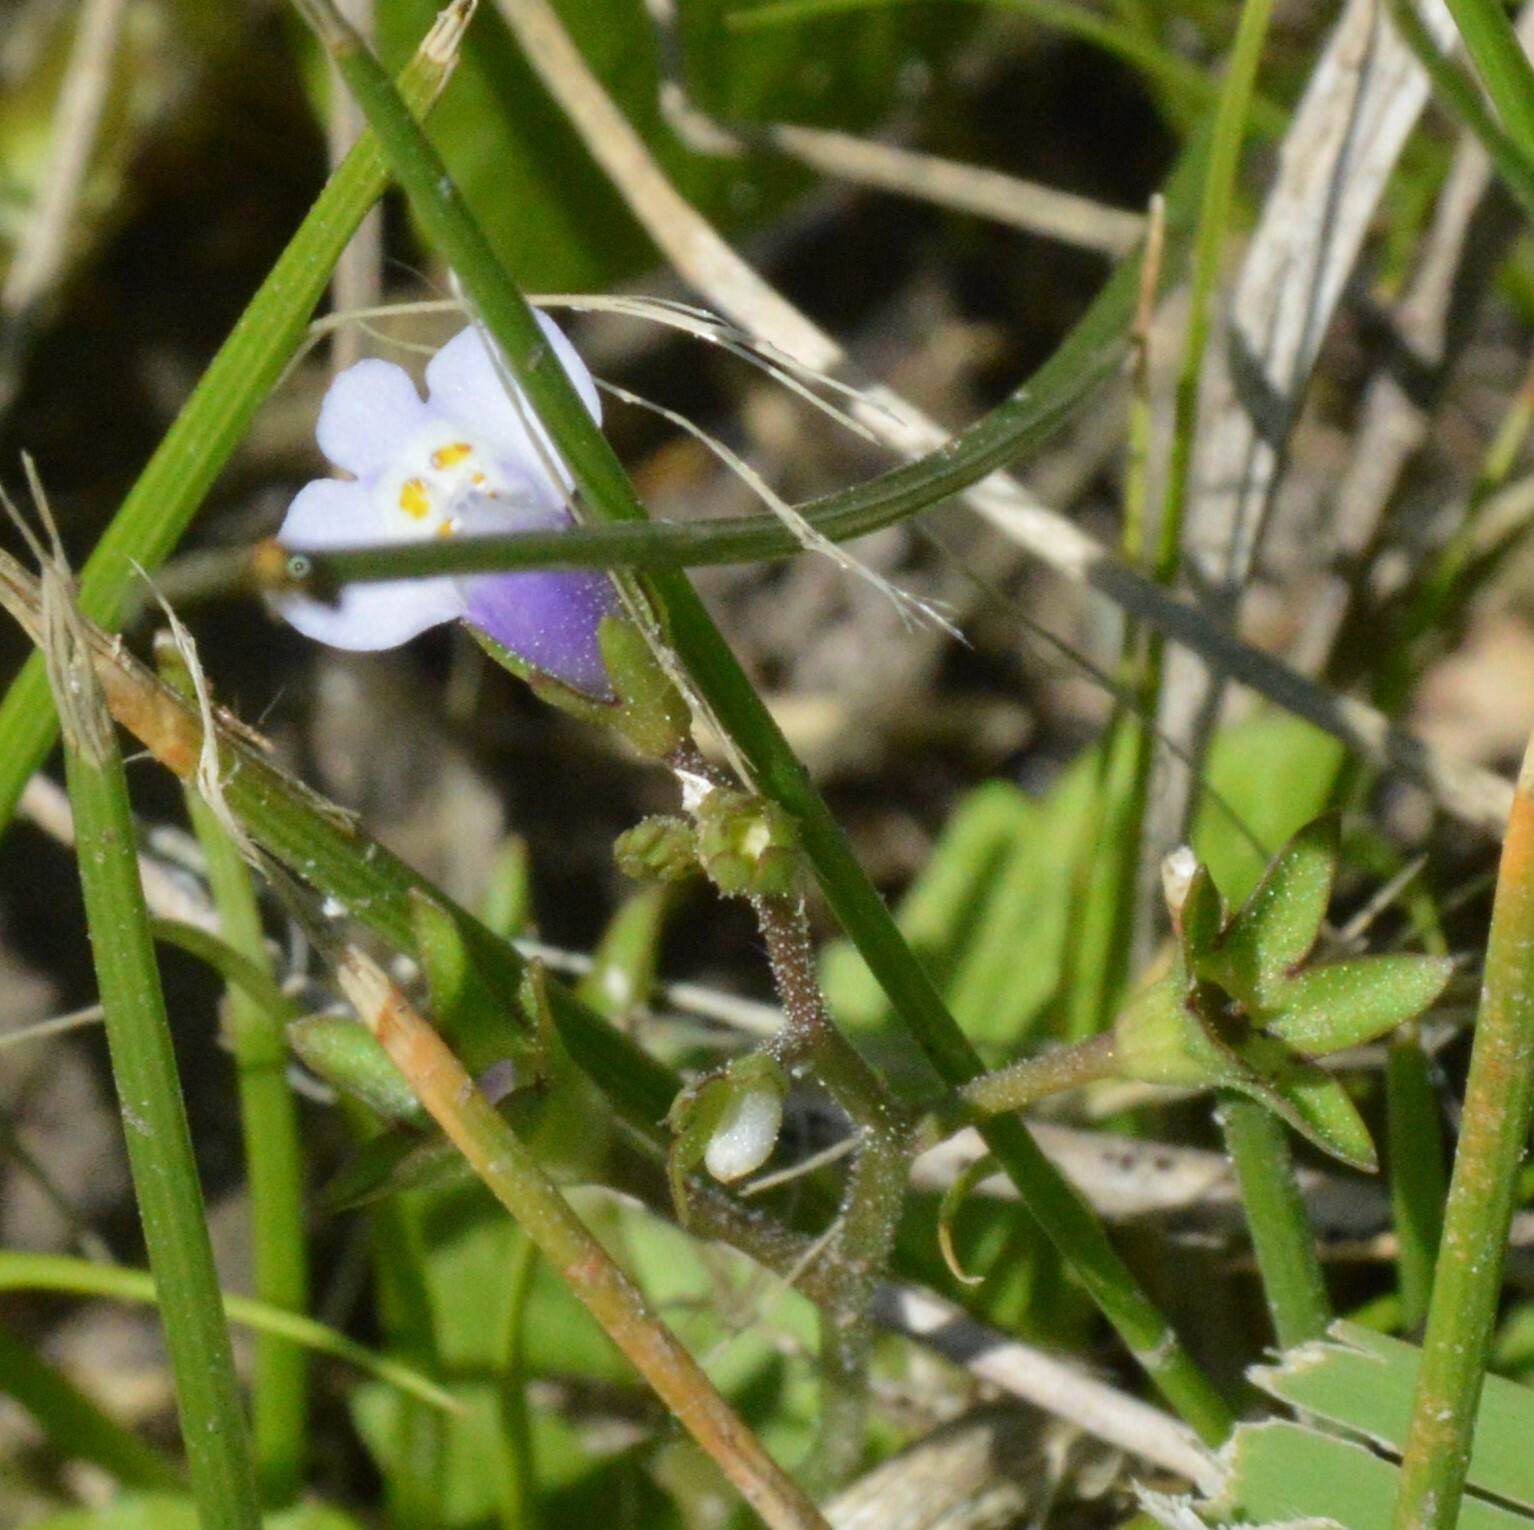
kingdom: Plantae
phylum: Tracheophyta
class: Magnoliopsida
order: Lamiales
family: Mazaceae
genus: Mazus
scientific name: Mazus pumilus
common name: Japanese mazus
